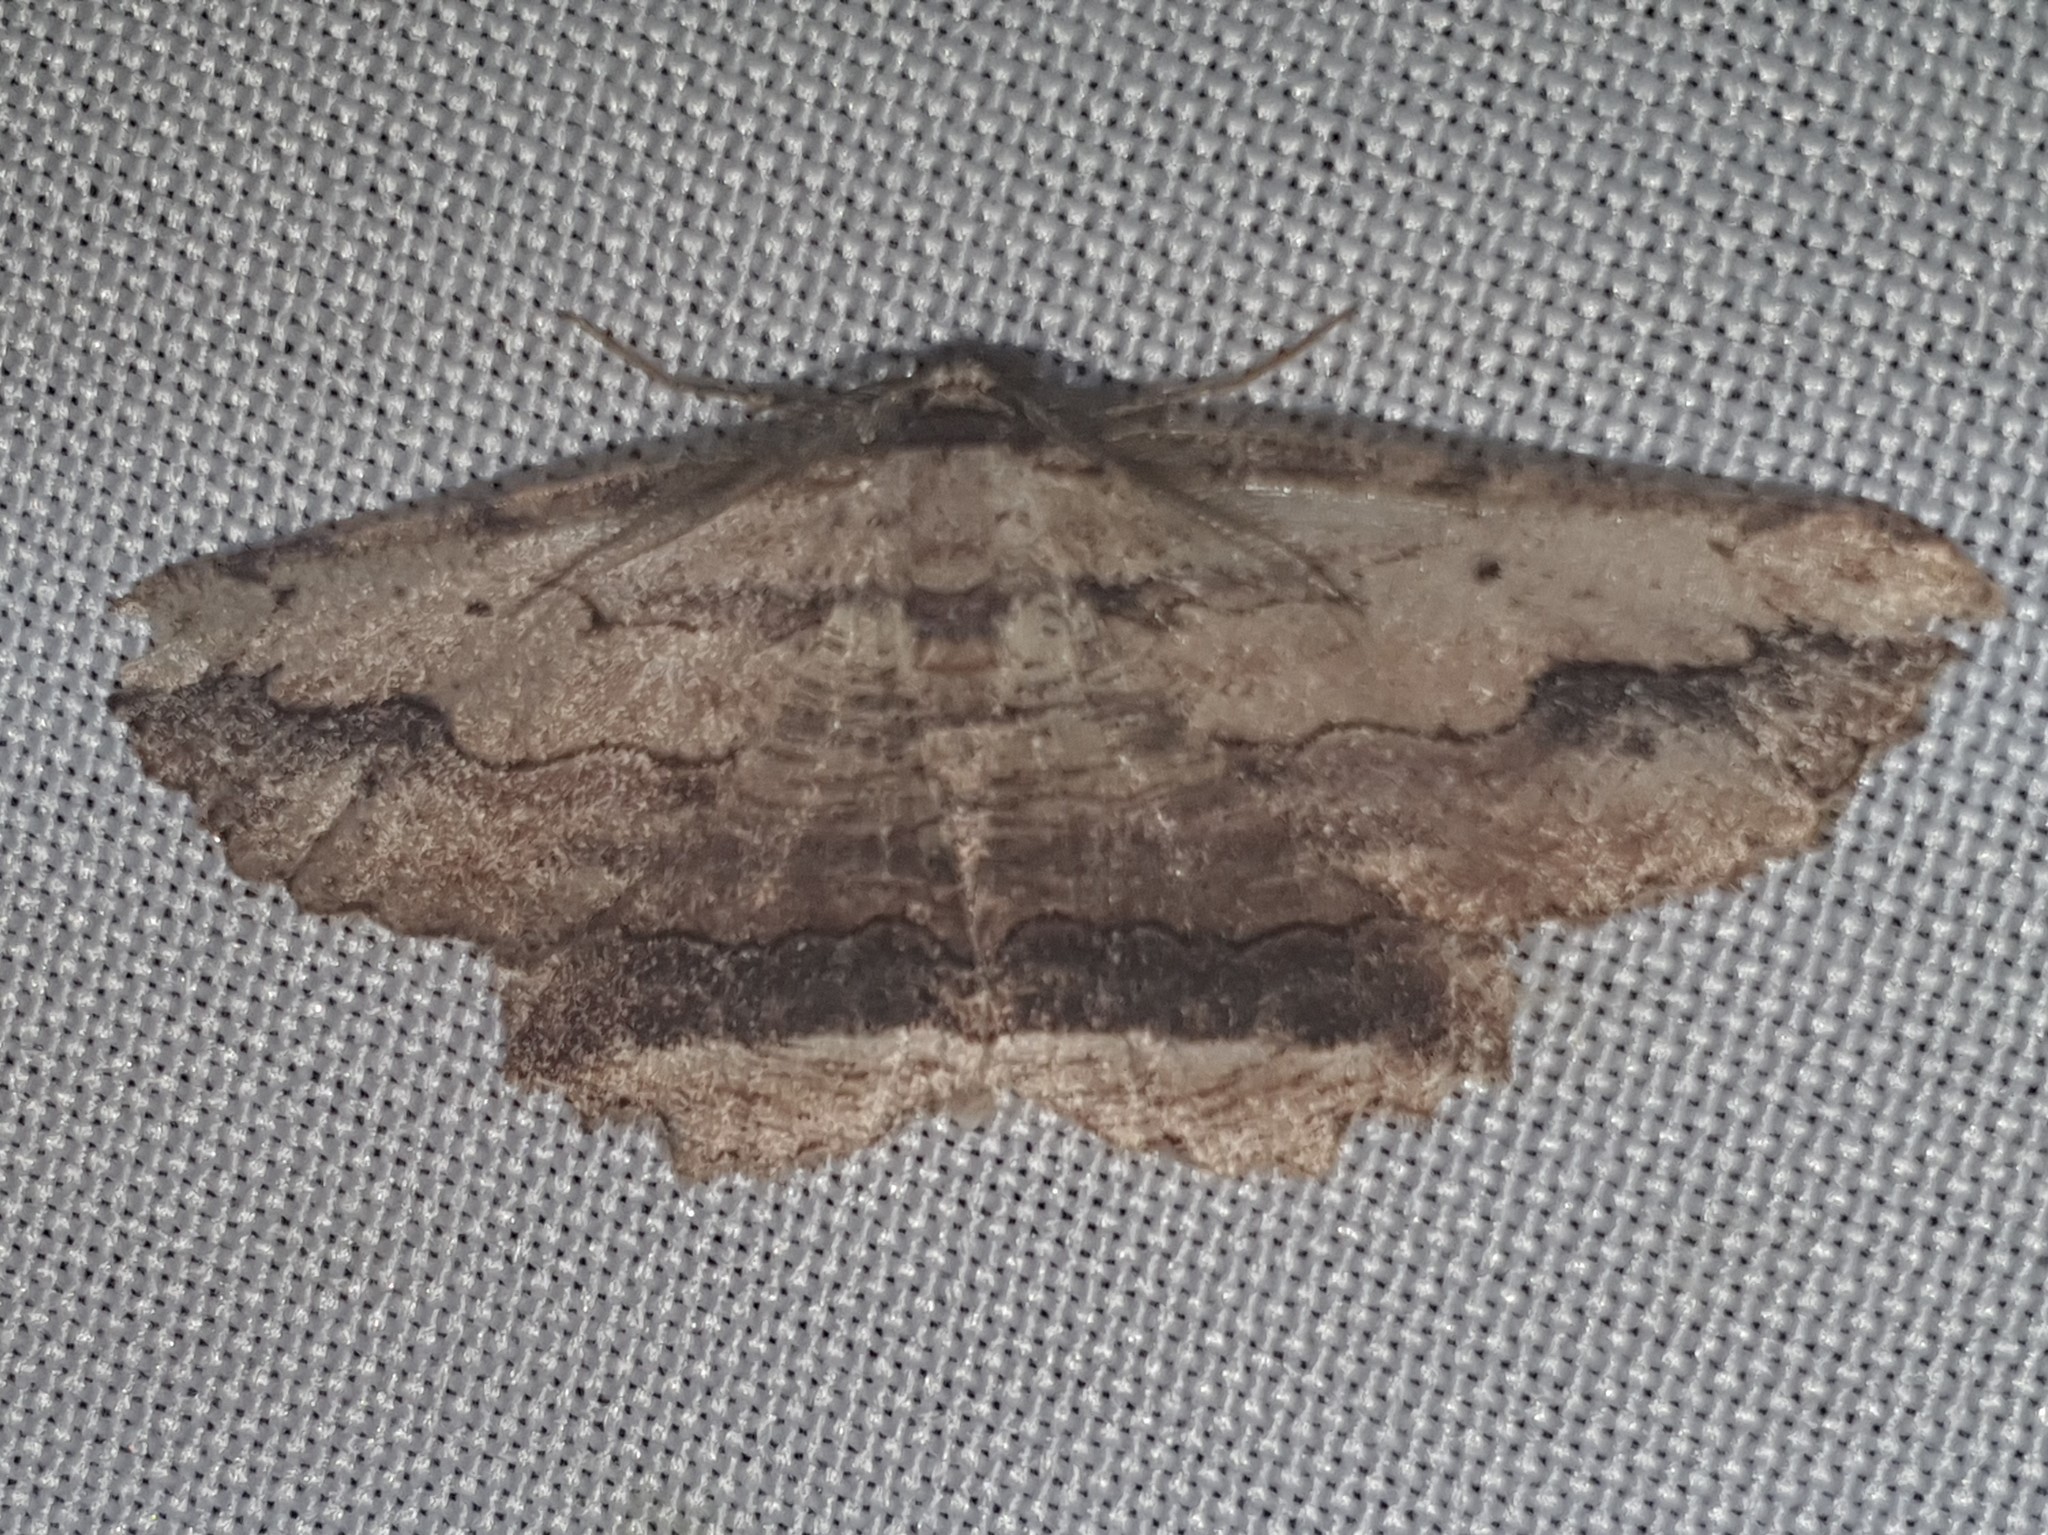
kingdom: Animalia
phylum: Arthropoda
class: Insecta
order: Lepidoptera
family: Geometridae
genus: Menophra
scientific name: Menophra abruptaria
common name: Waved umber
